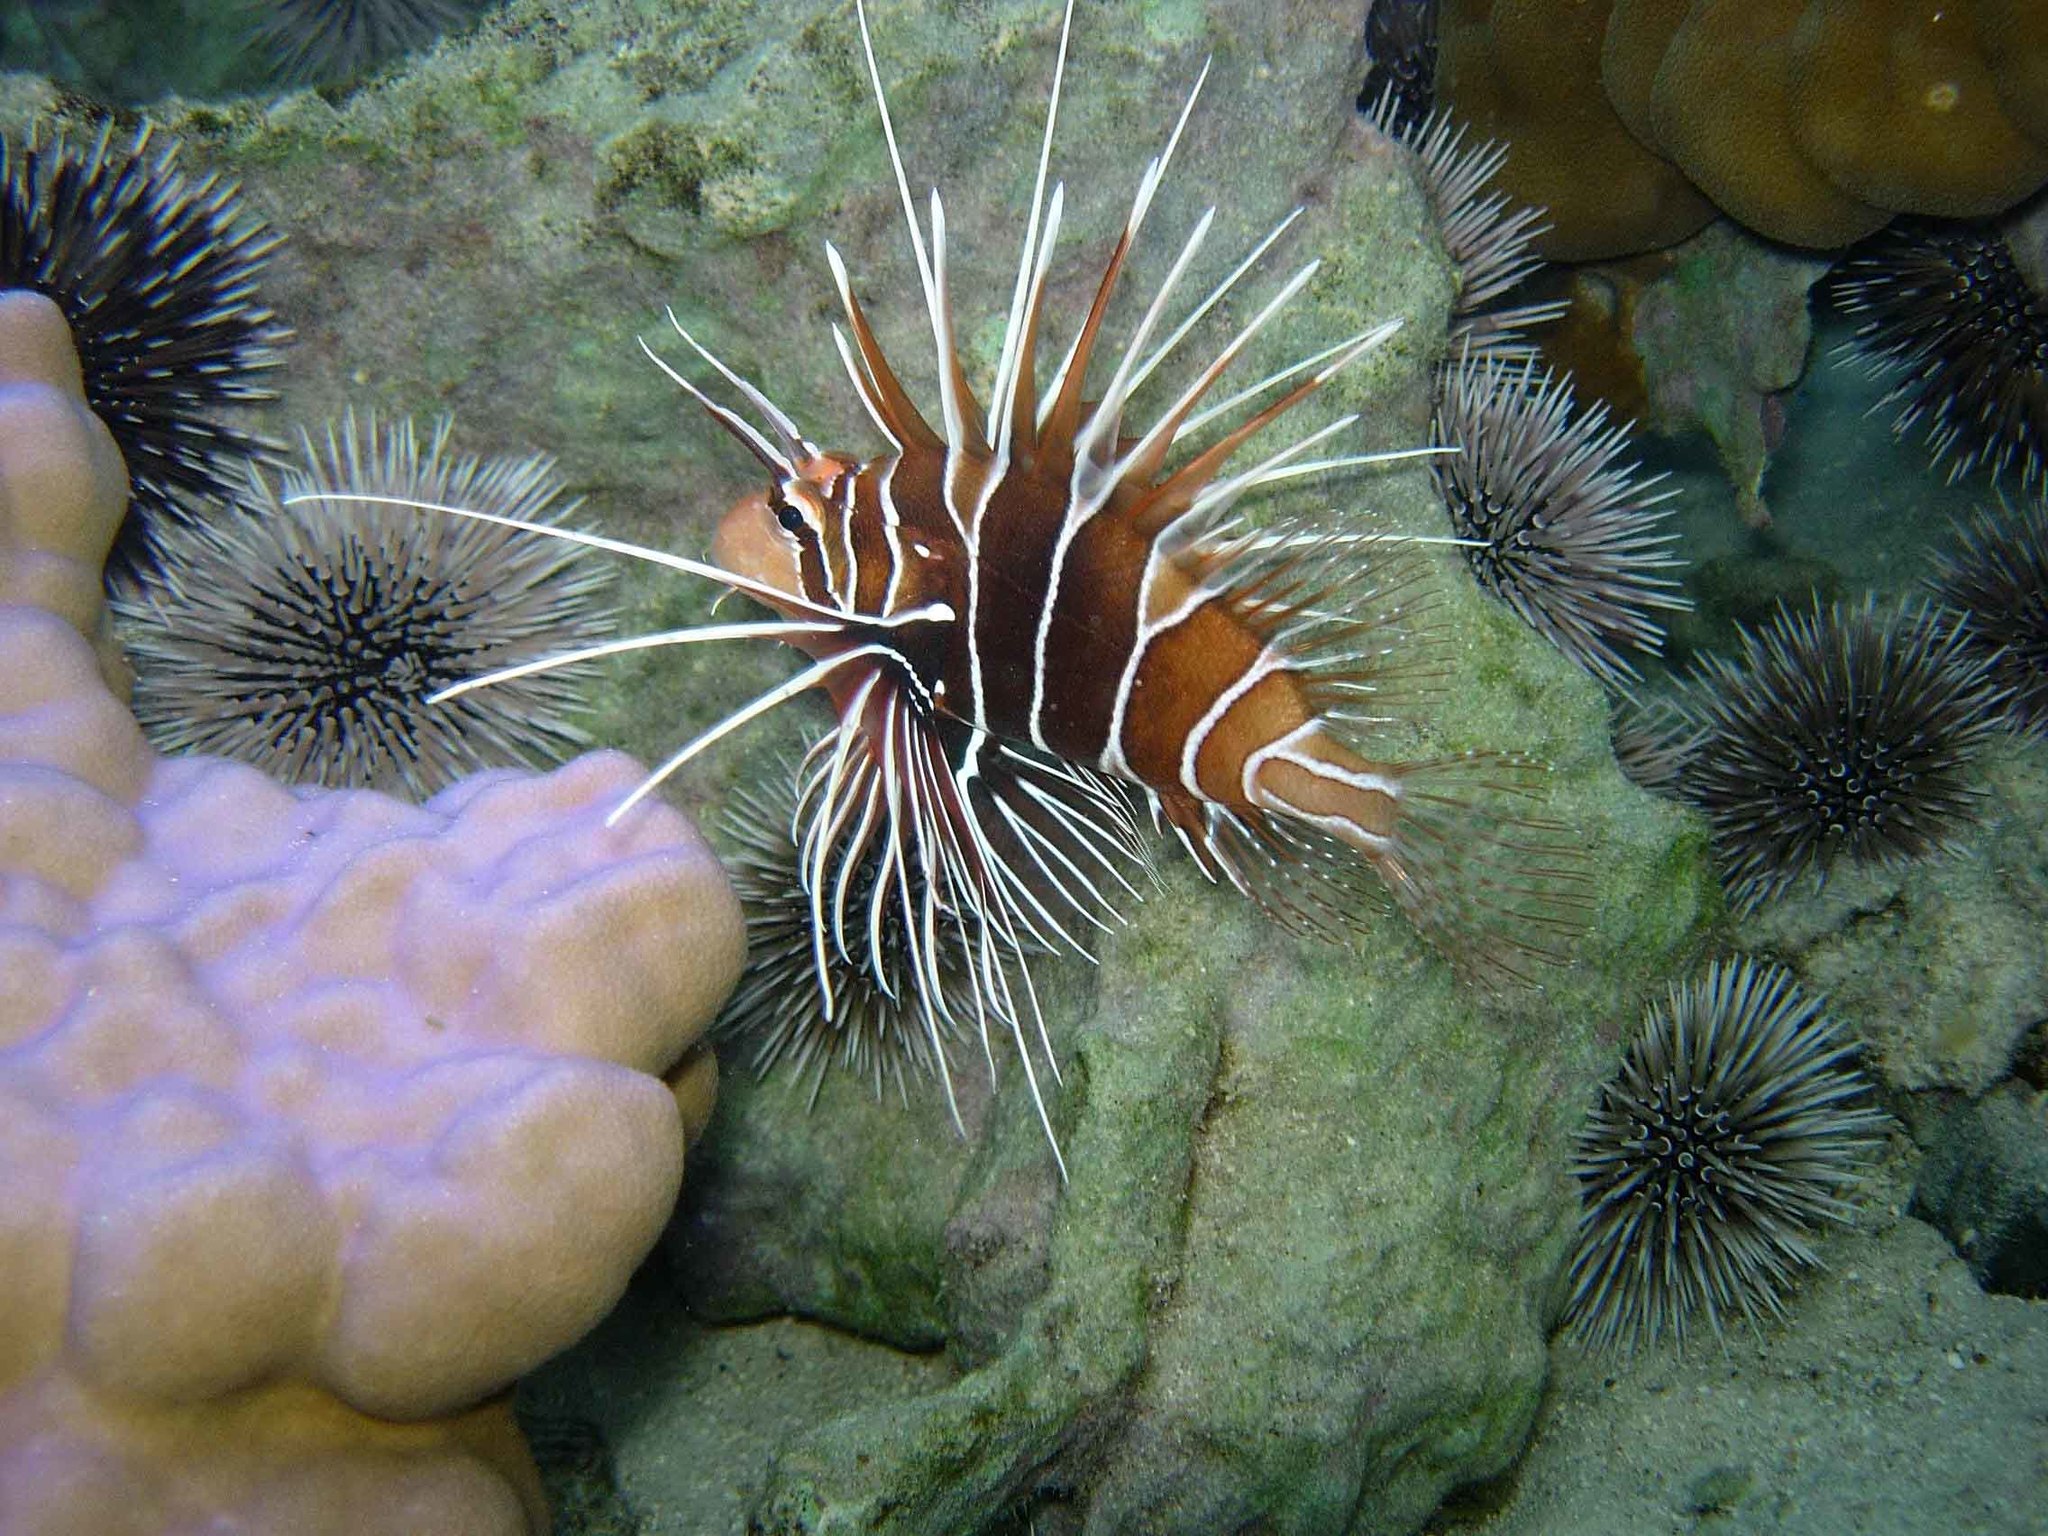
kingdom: Animalia
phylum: Chordata
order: Scorpaeniformes
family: Scorpaenidae
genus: Pterois
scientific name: Pterois radiata
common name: Radial firefish
